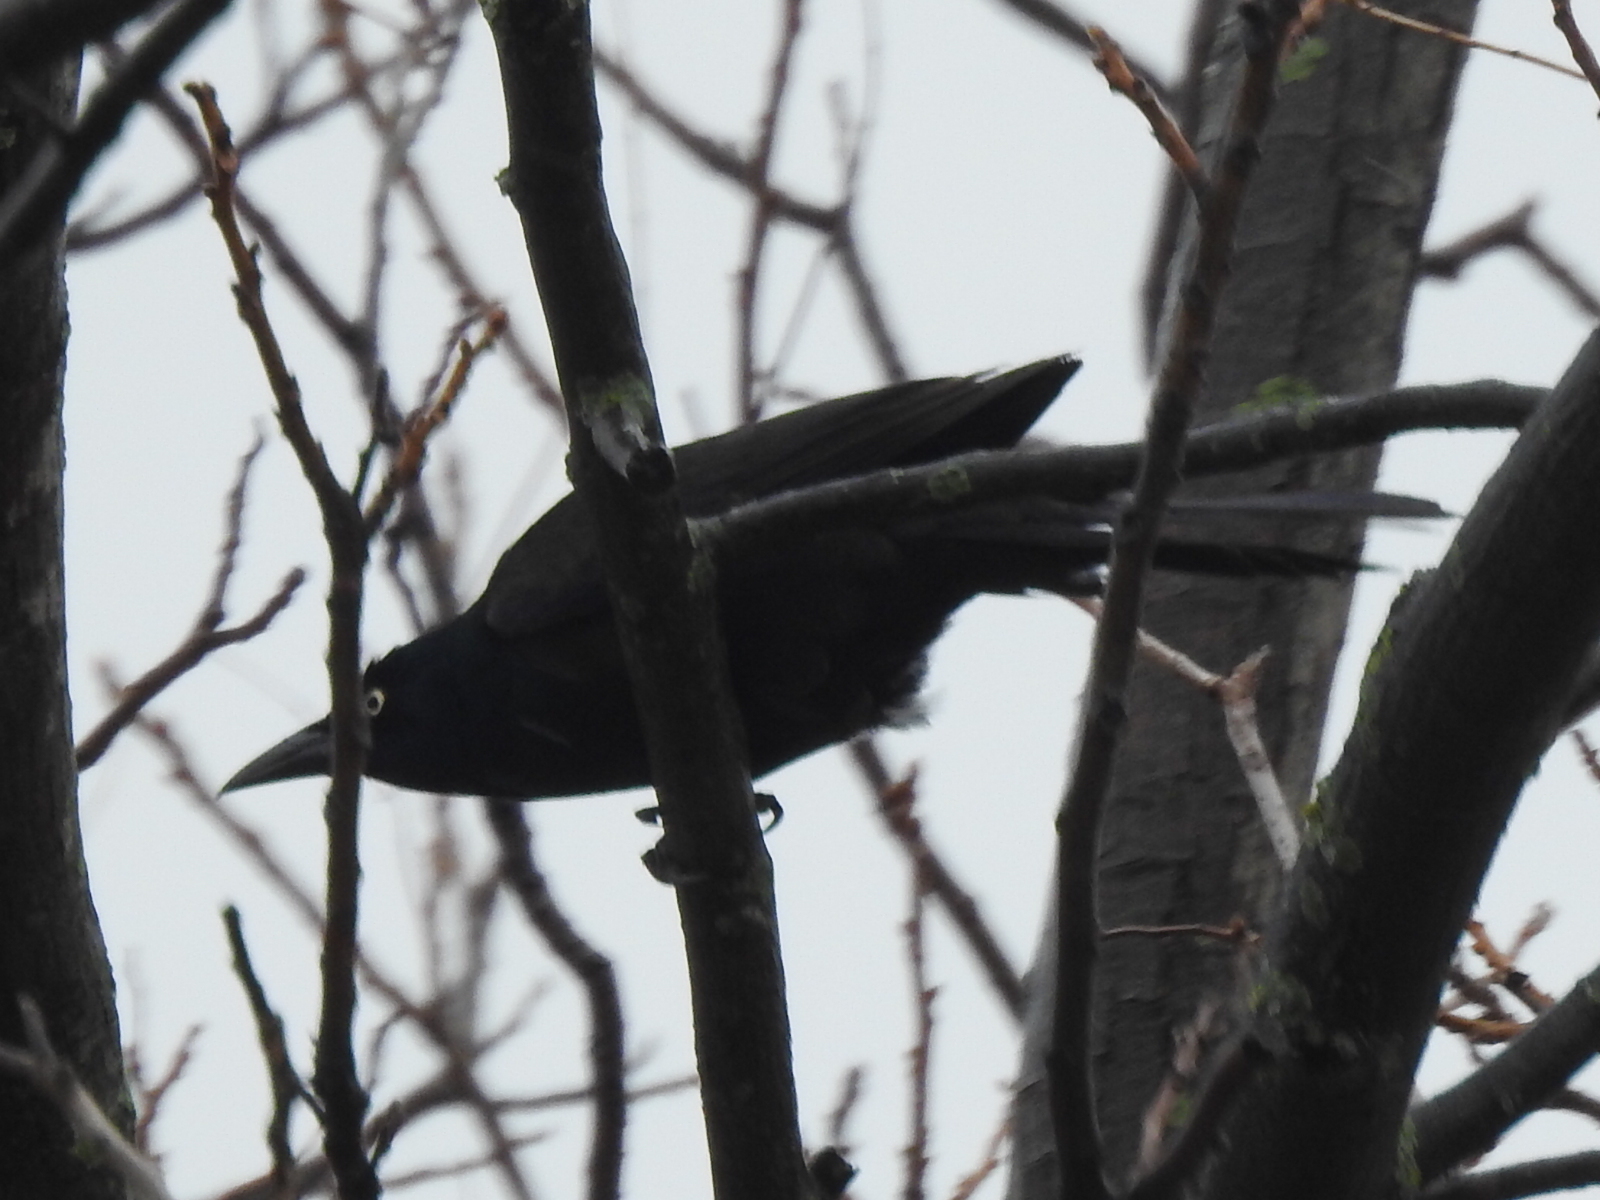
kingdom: Animalia
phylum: Chordata
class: Aves
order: Passeriformes
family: Icteridae
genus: Quiscalus
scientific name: Quiscalus mexicanus
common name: Great-tailed grackle
